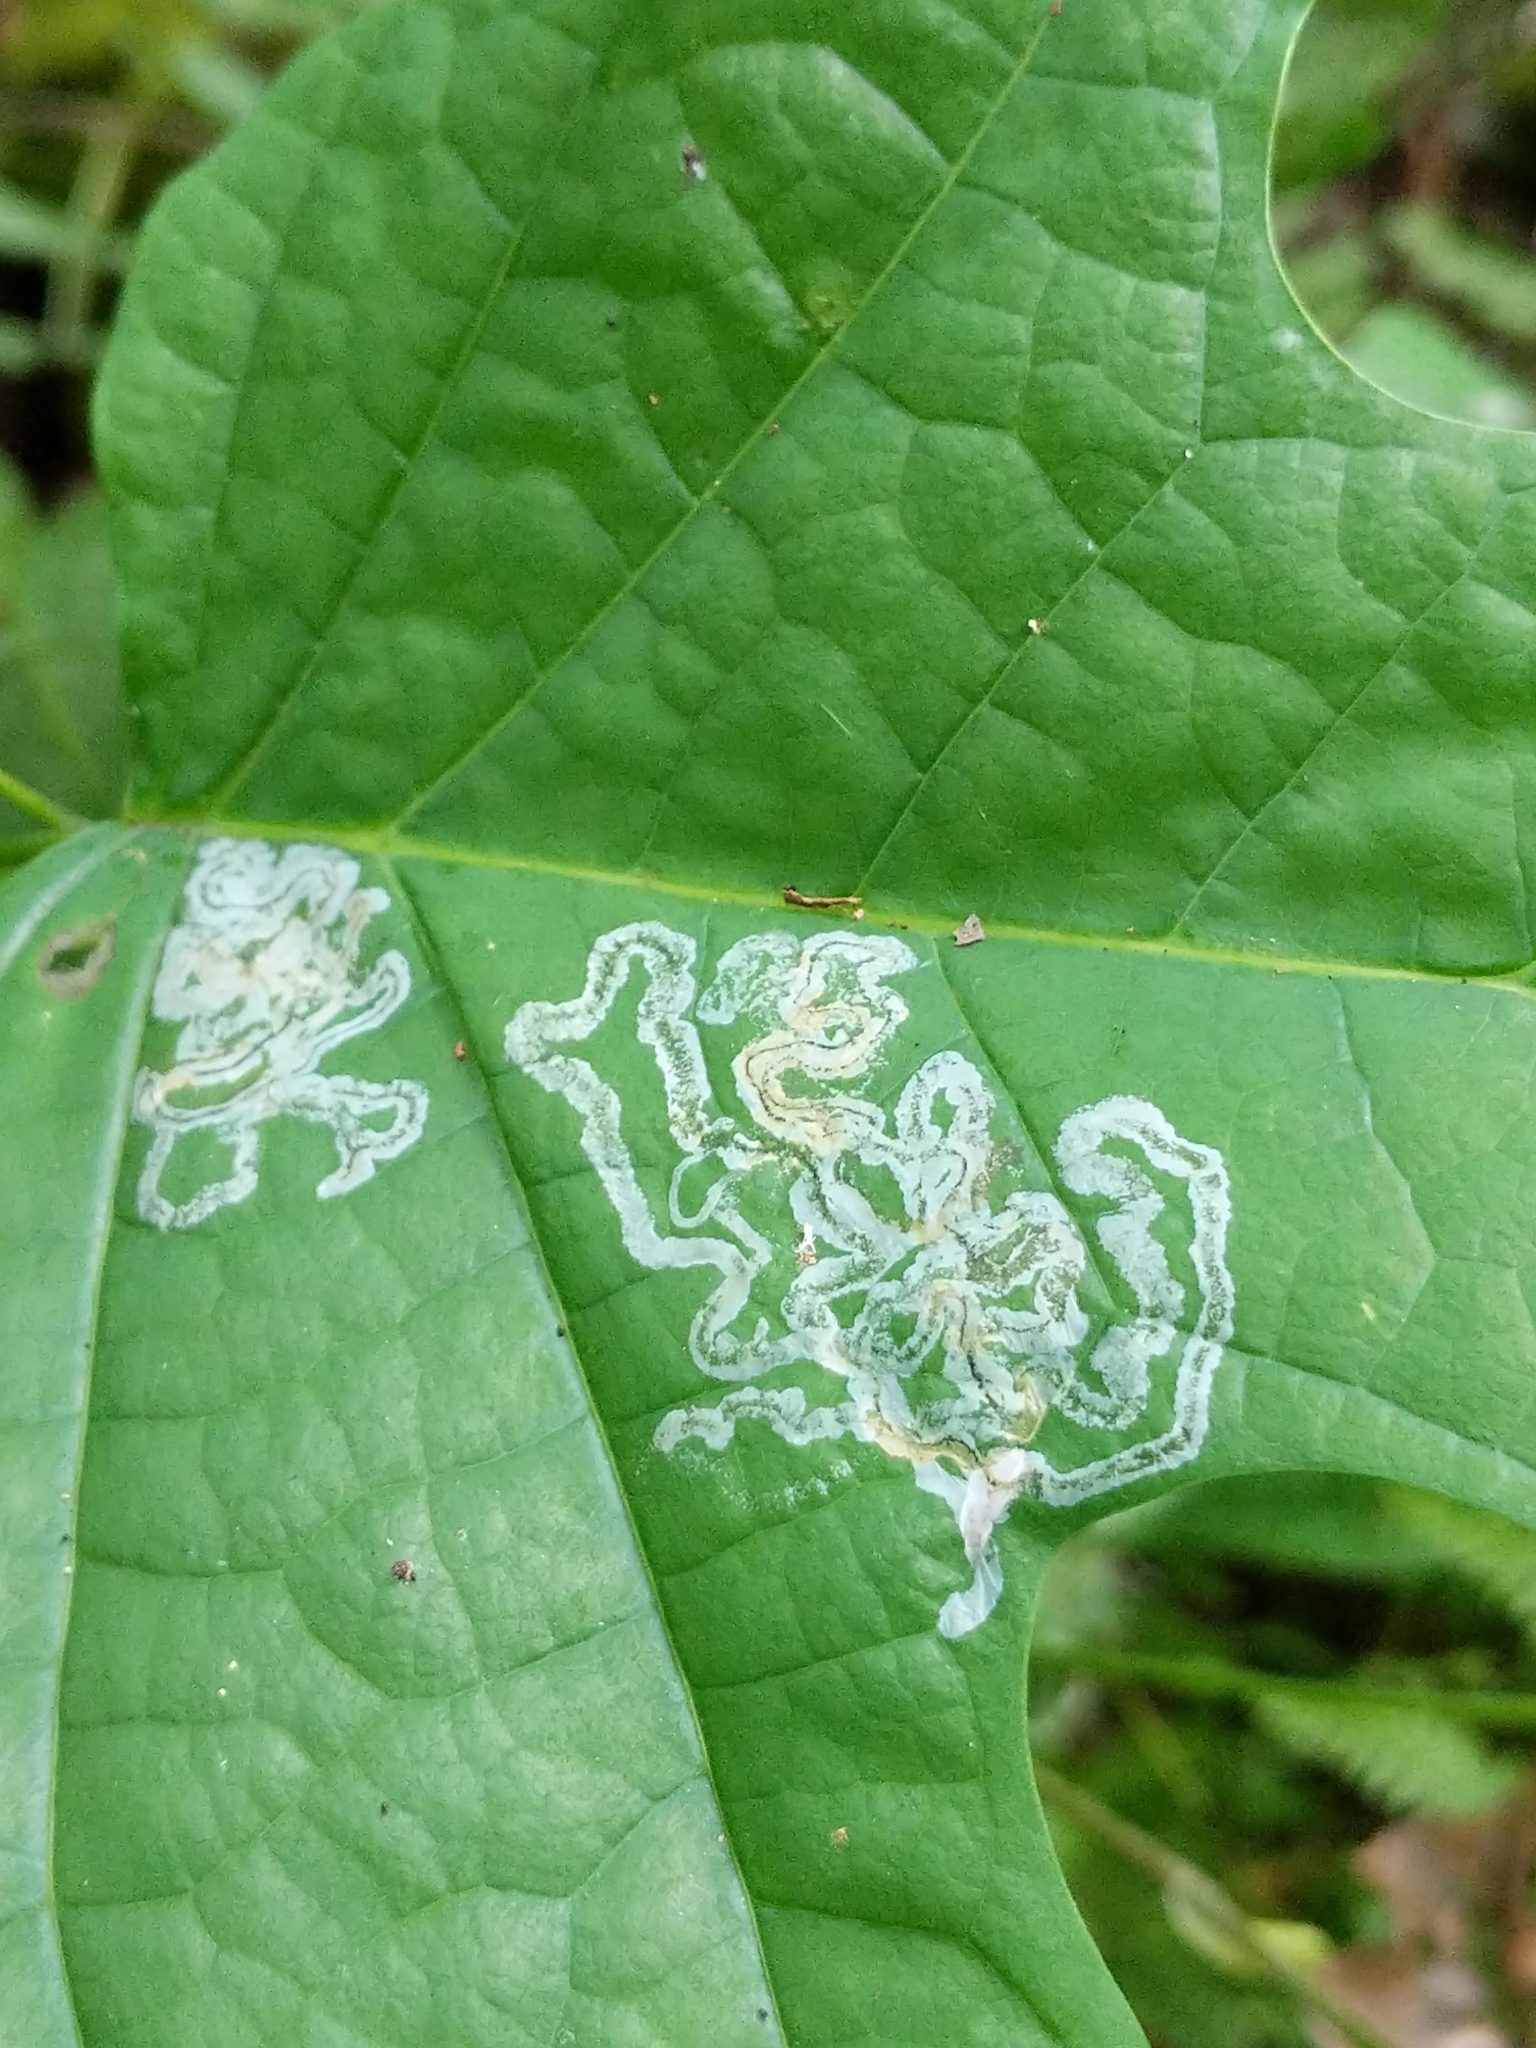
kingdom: Animalia
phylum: Arthropoda
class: Insecta
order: Lepidoptera
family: Gracillariidae
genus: Phyllocnistis
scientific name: Phyllocnistis liriodendronella
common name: Tulip tree leaf miner
